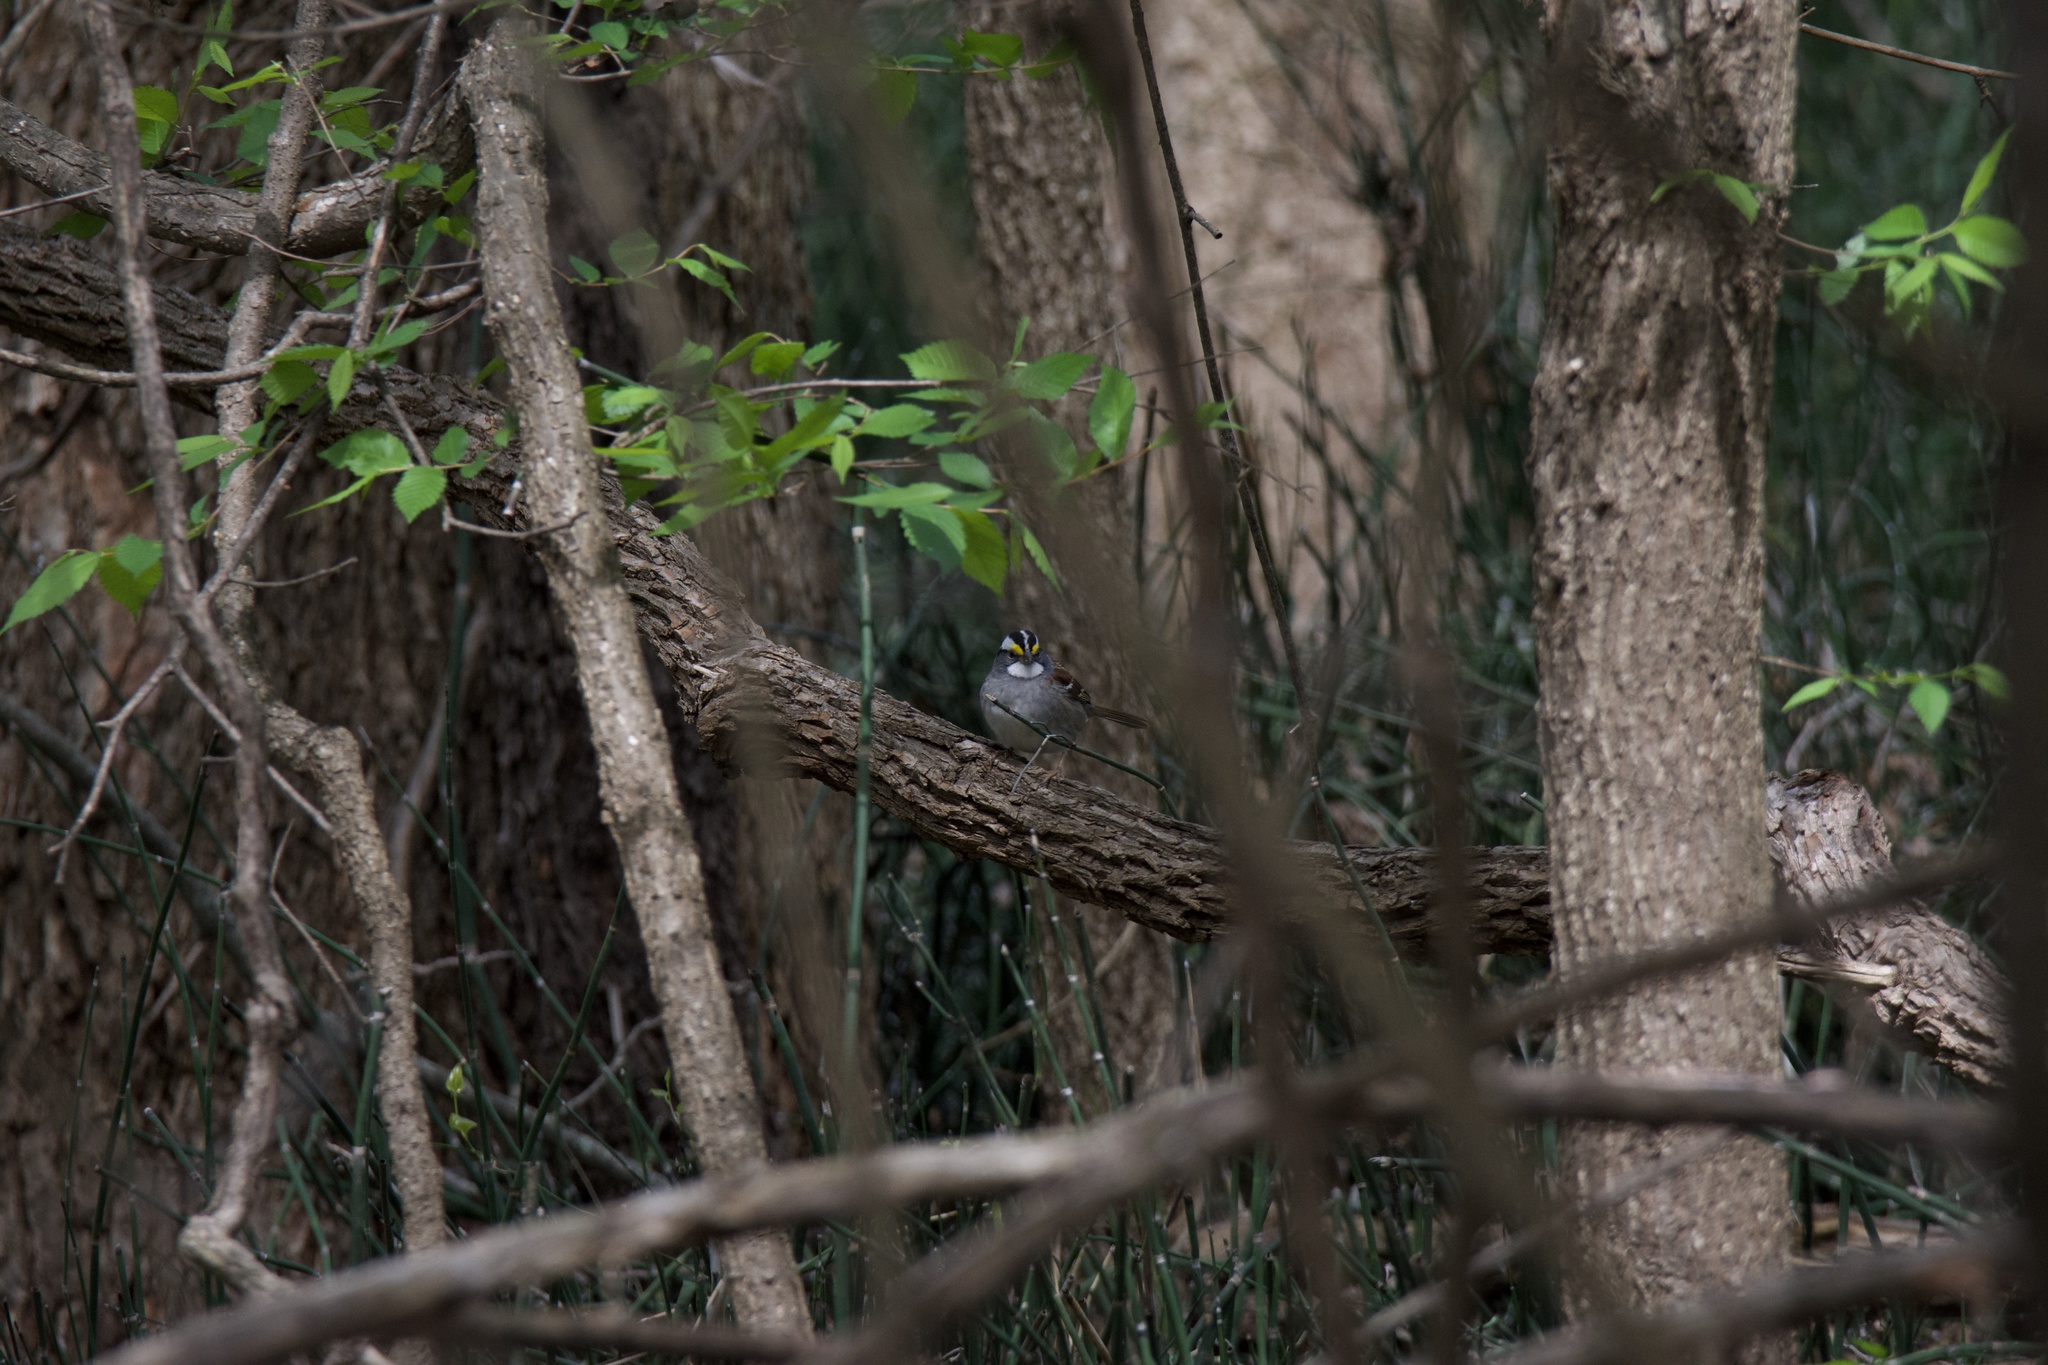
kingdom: Animalia
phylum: Chordata
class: Aves
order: Passeriformes
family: Passerellidae
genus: Zonotrichia
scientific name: Zonotrichia albicollis
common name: White-throated sparrow
